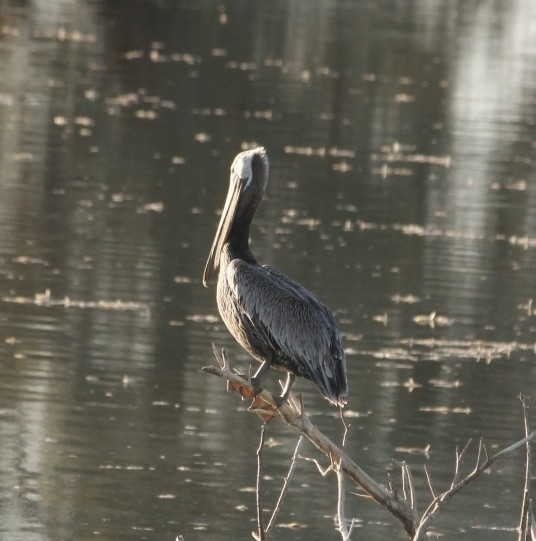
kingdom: Animalia
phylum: Chordata
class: Aves
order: Pelecaniformes
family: Pelecanidae
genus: Pelecanus
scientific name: Pelecanus occidentalis
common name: Brown pelican
